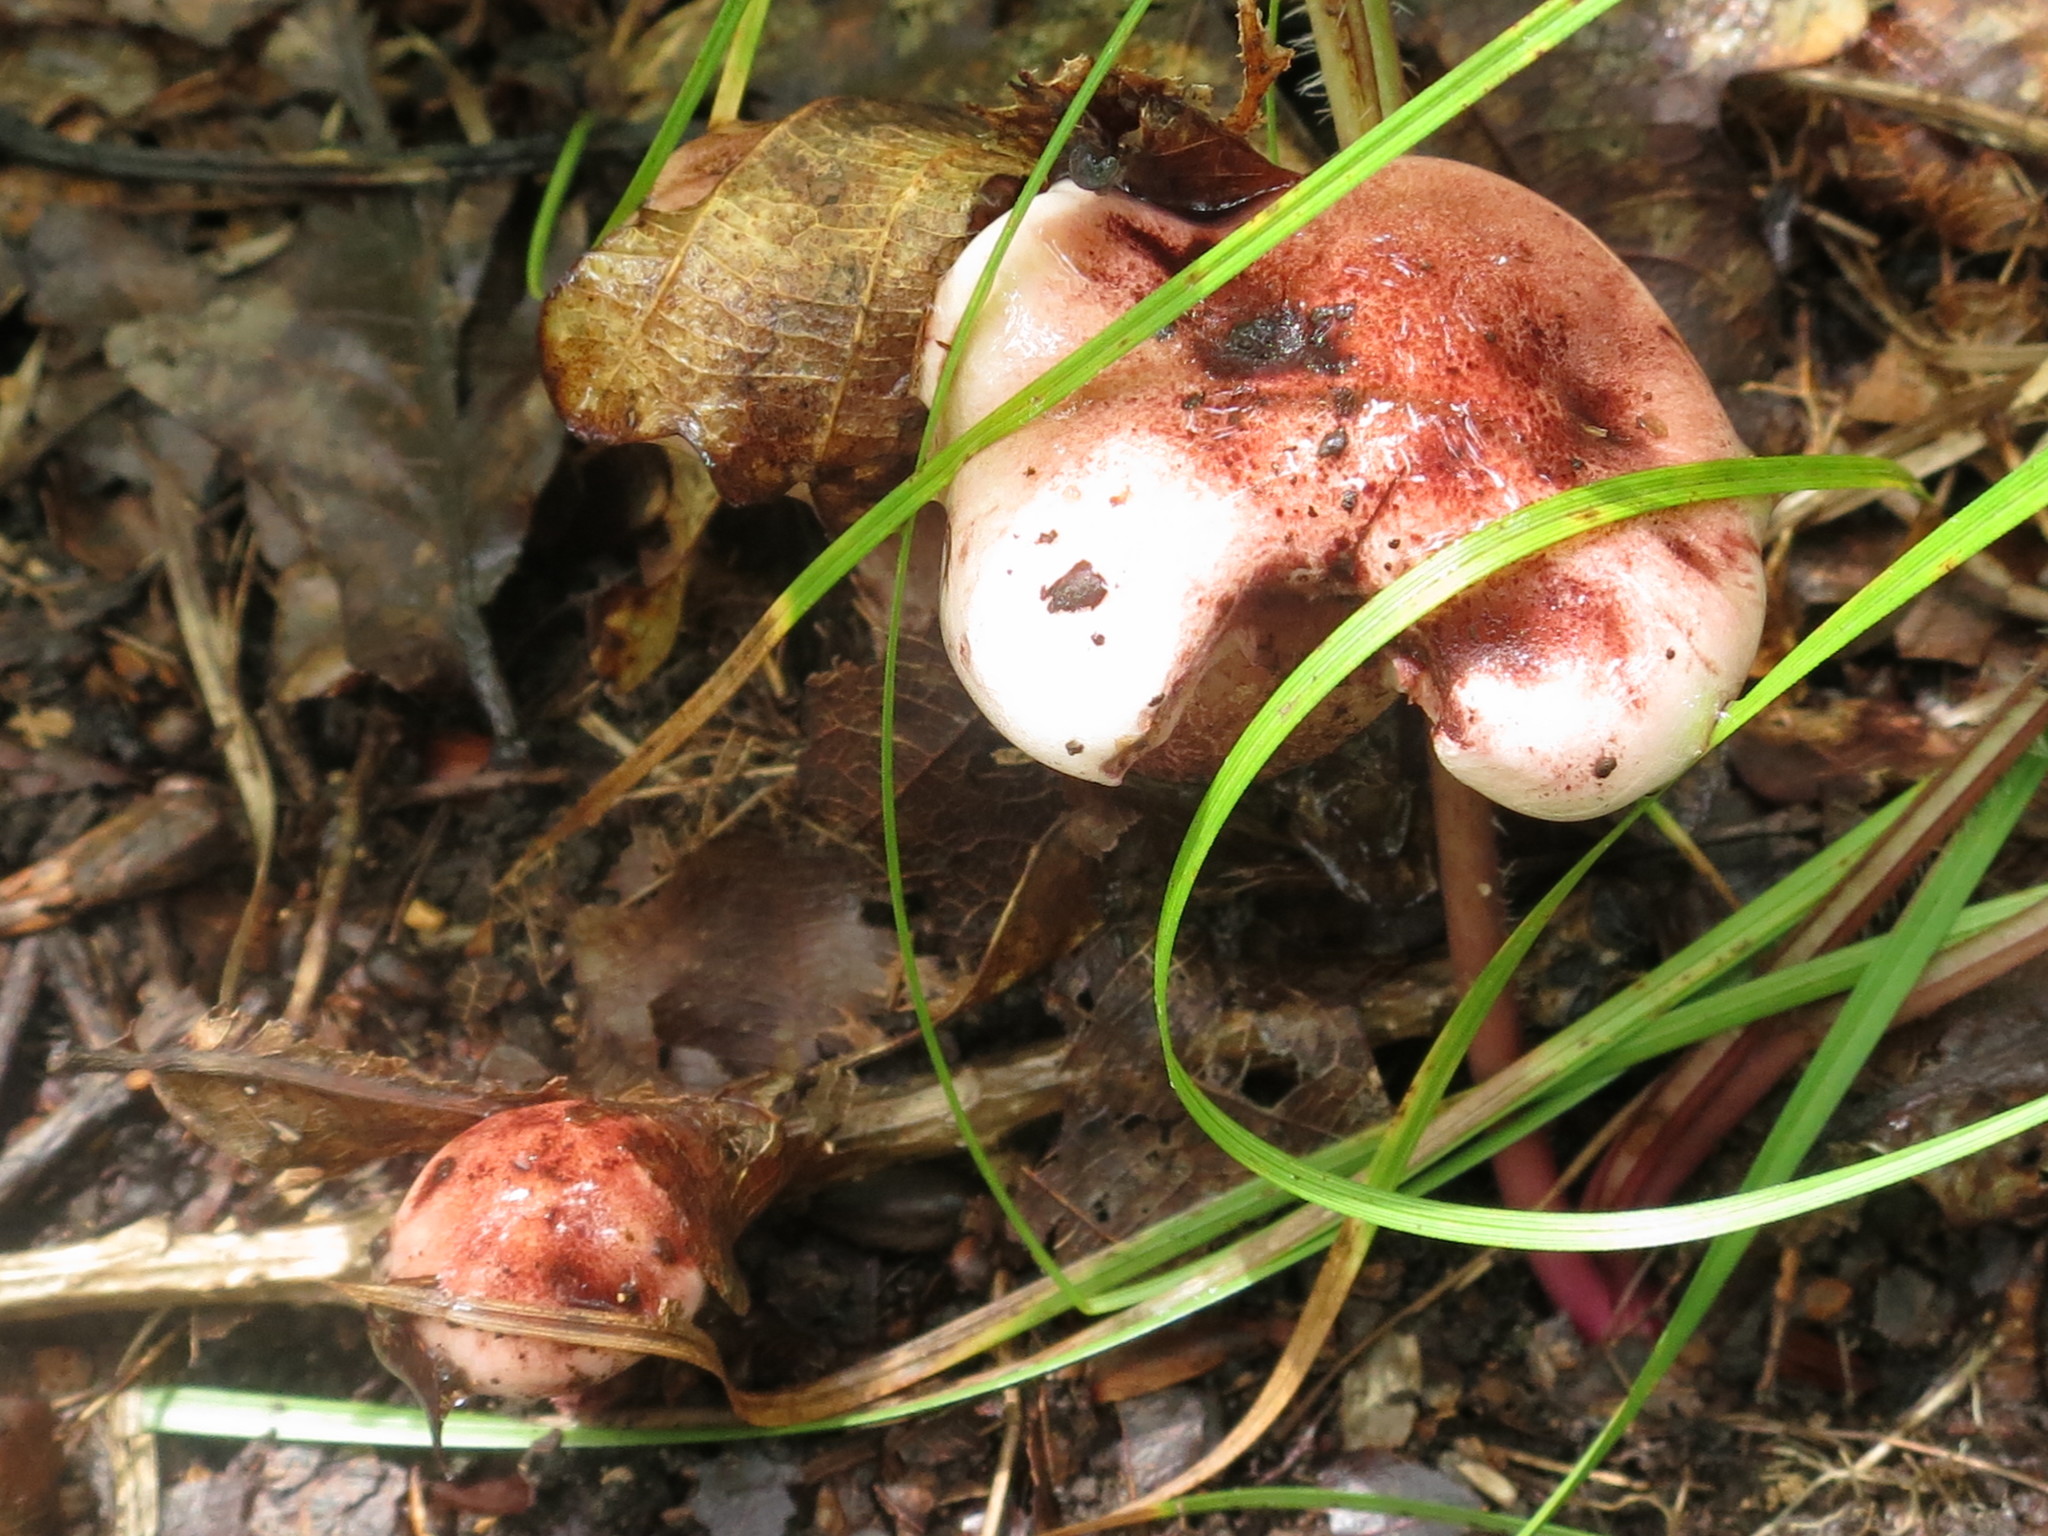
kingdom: Fungi
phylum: Basidiomycota
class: Agaricomycetes
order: Agaricales
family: Hygrophoraceae
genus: Hygrophorus
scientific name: Hygrophorus russula
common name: Pinkmottle woodwax
